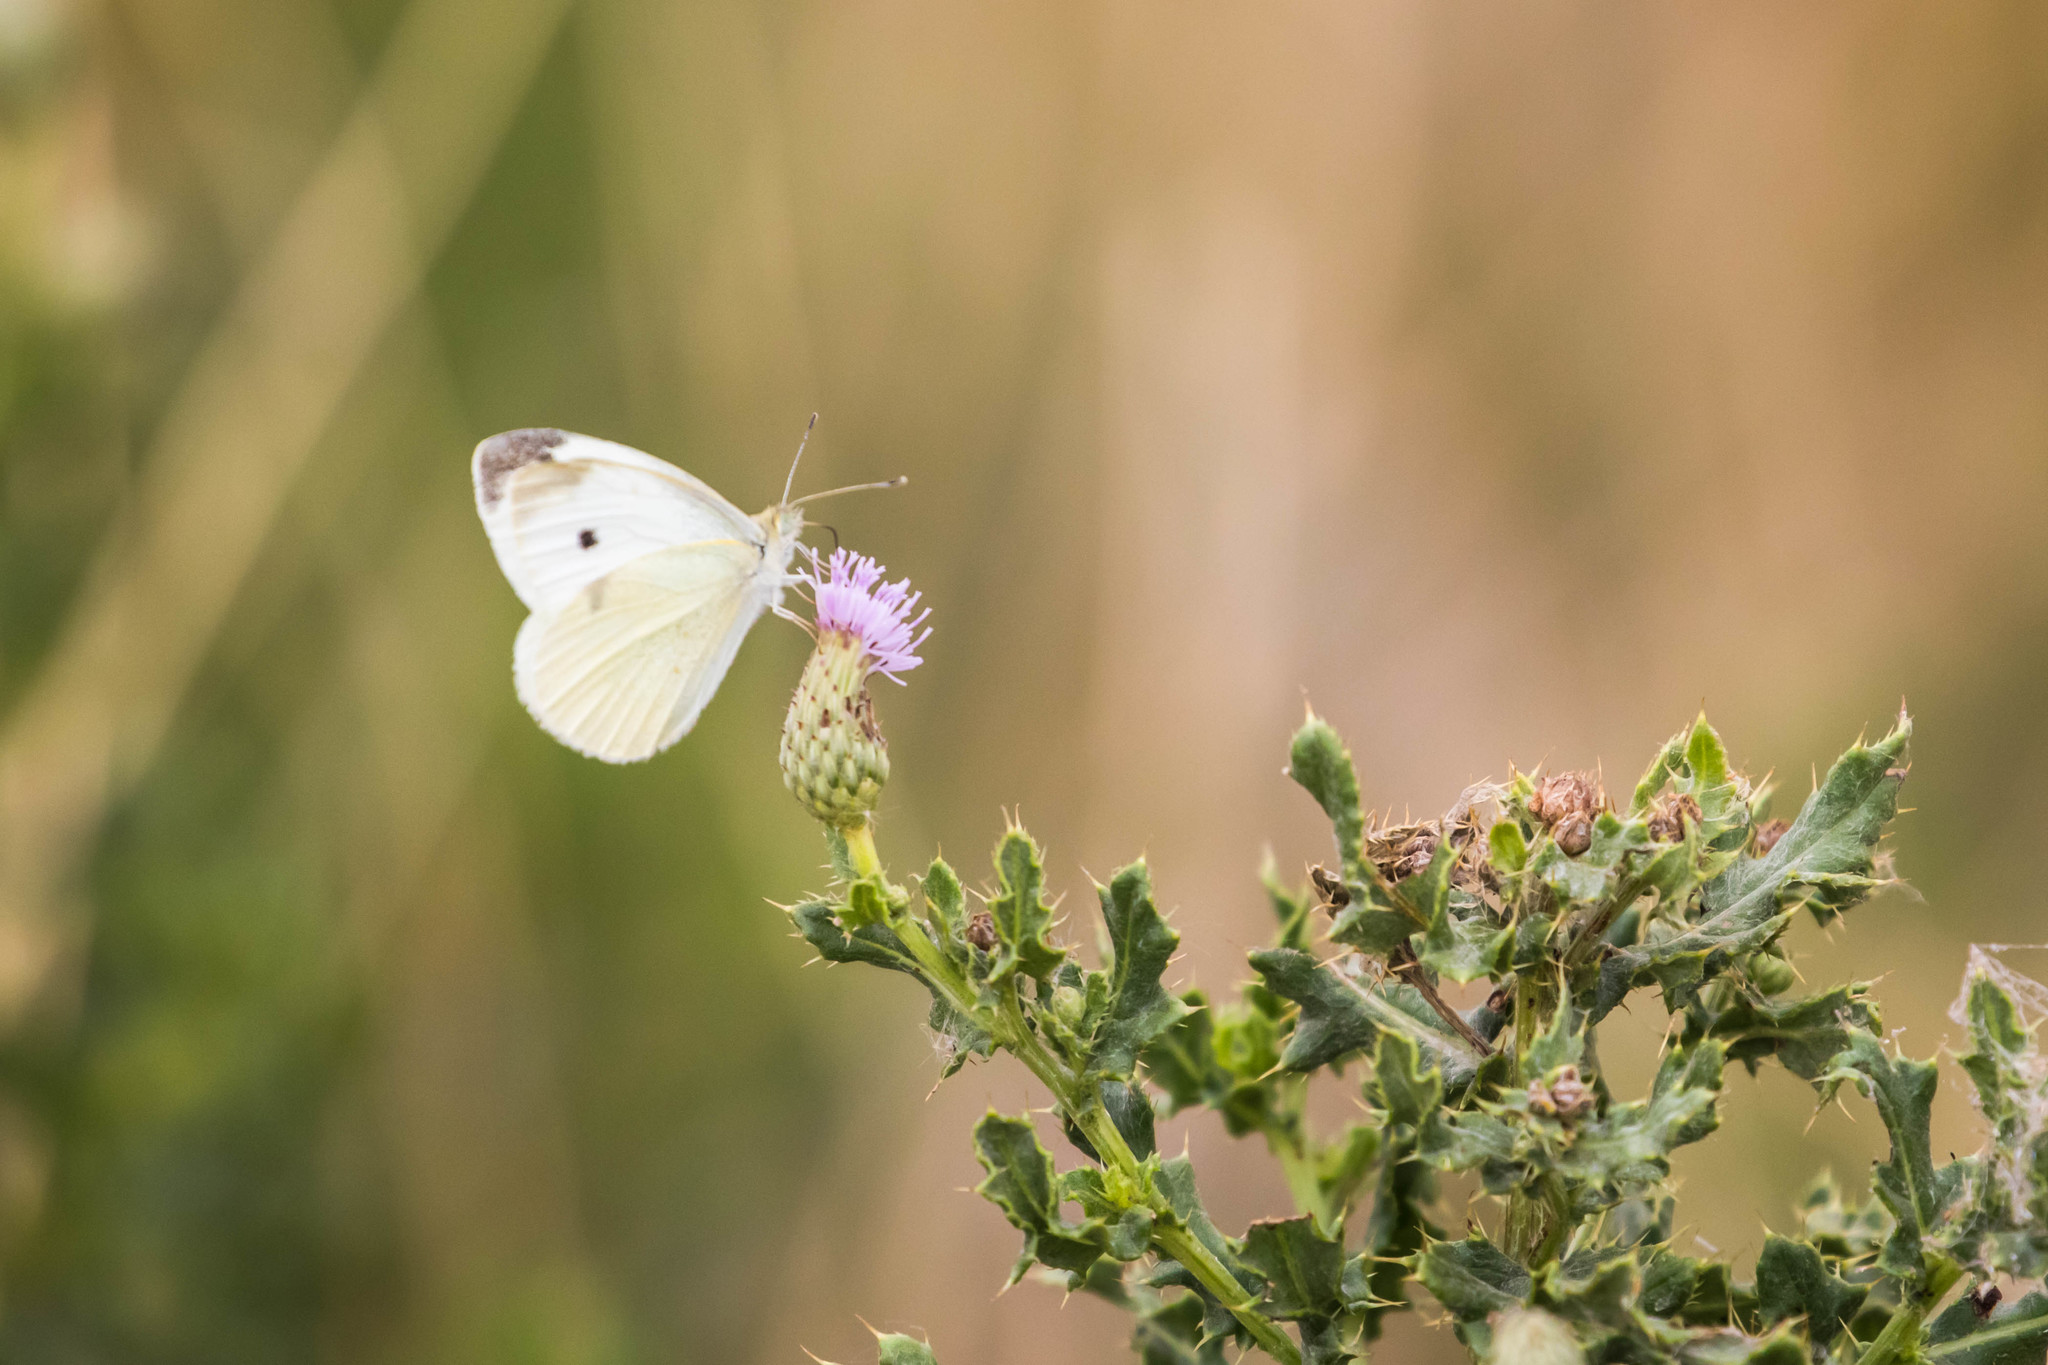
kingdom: Animalia
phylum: Arthropoda
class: Insecta
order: Lepidoptera
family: Pieridae
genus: Pieris
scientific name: Pieris rapae
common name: Small white
